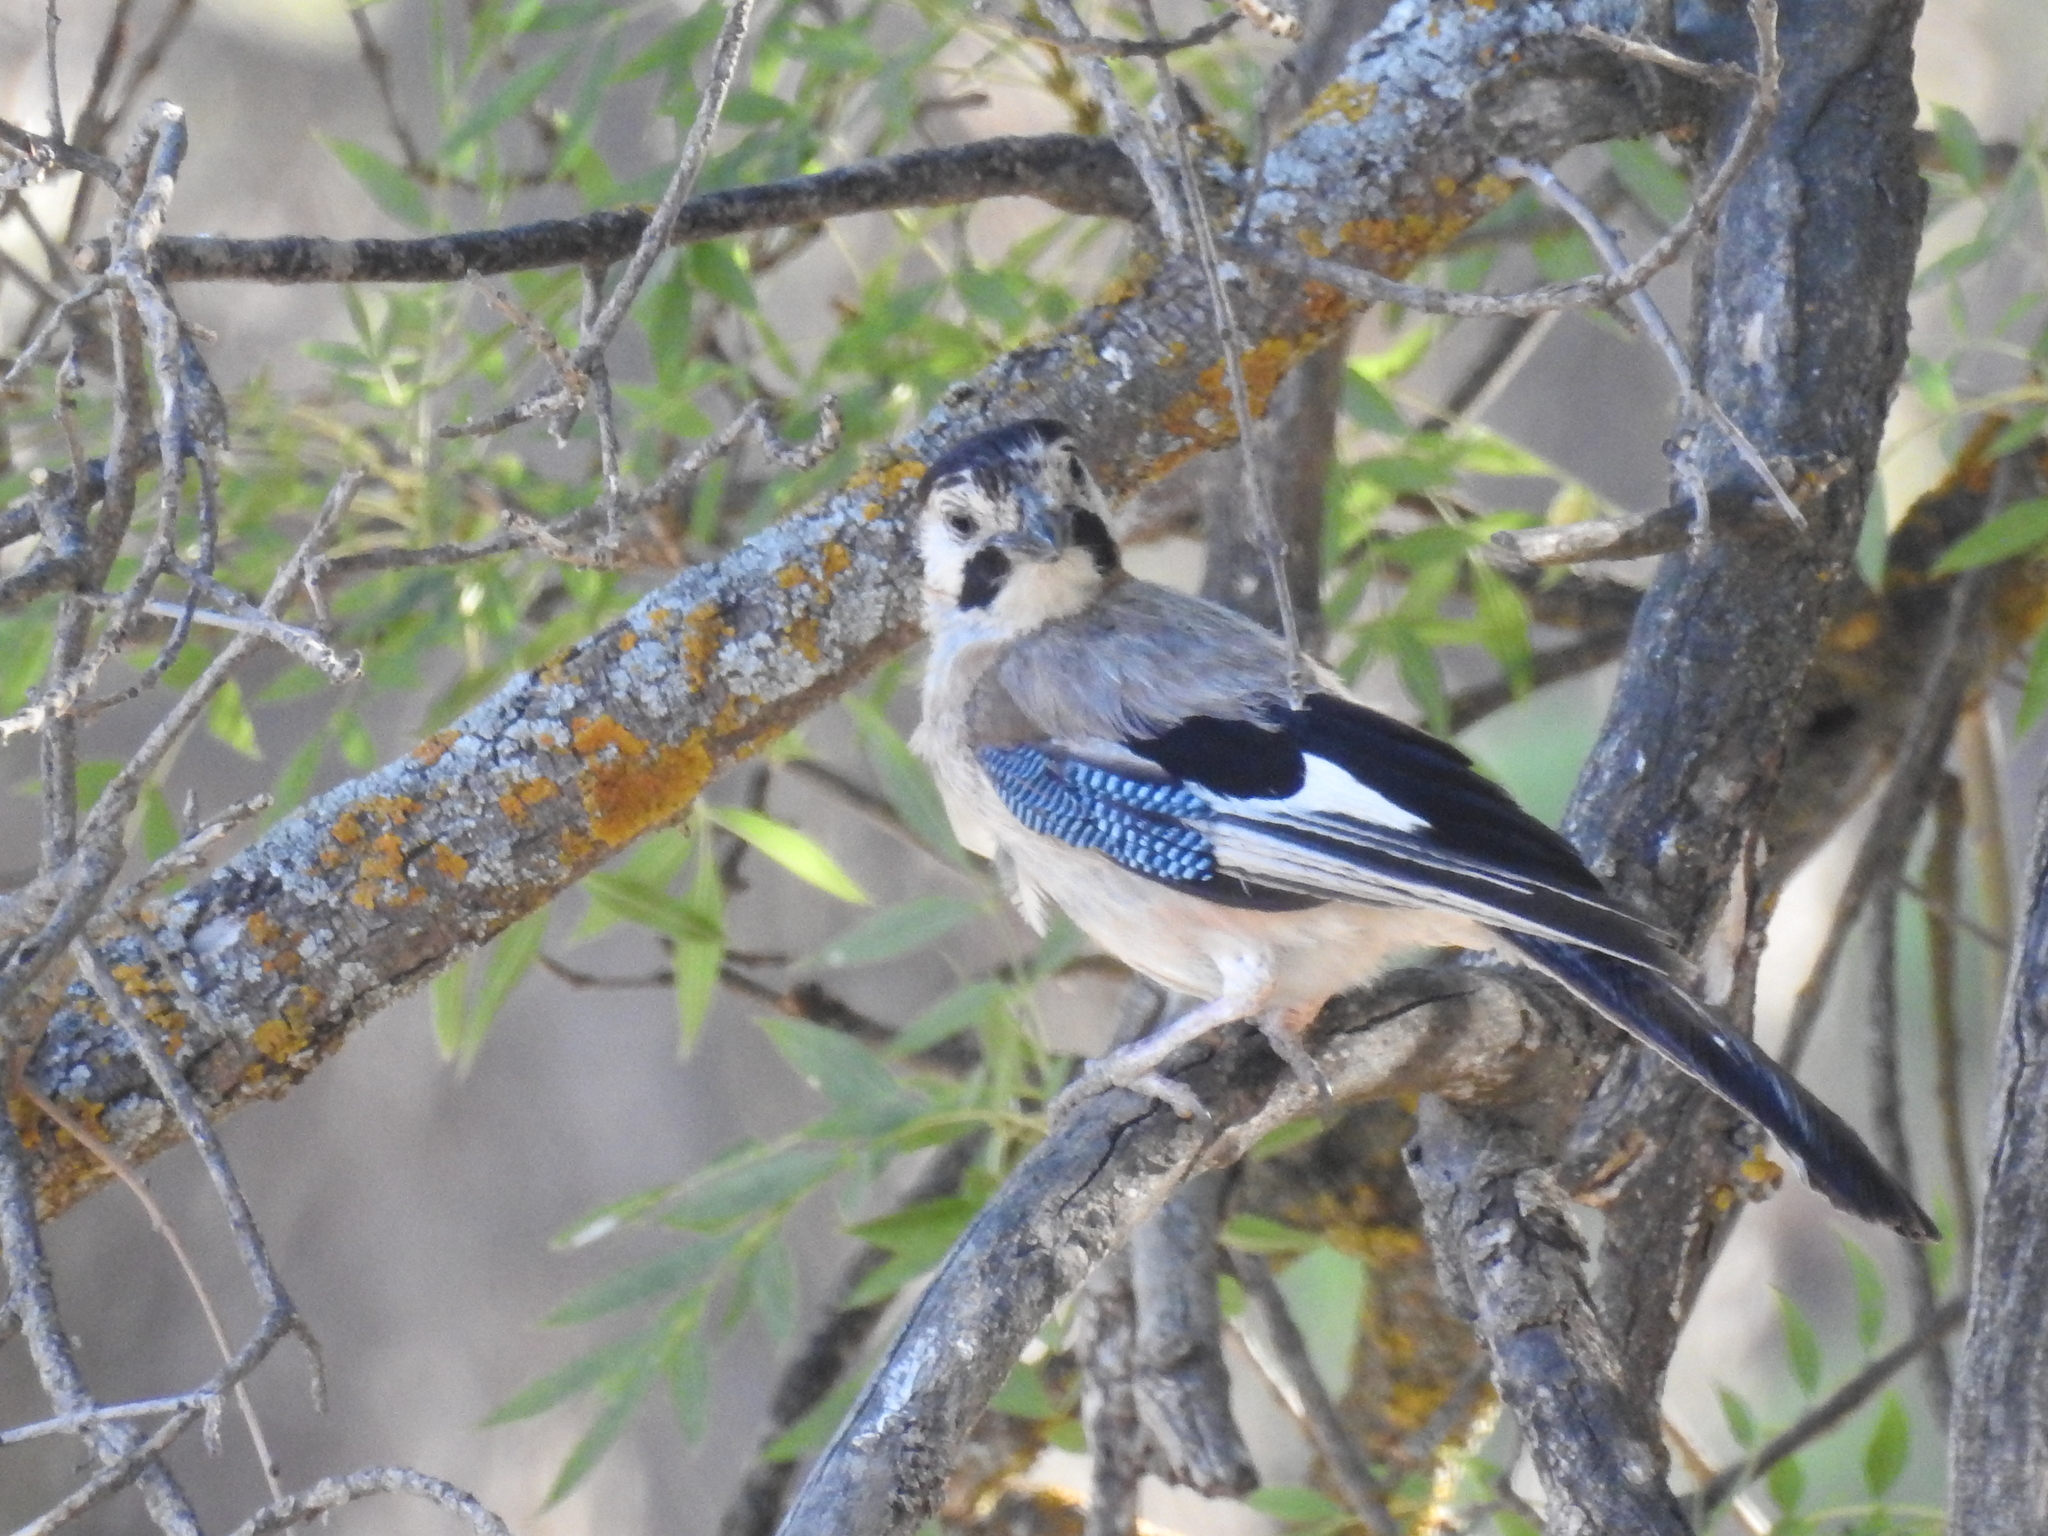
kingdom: Animalia
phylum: Chordata
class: Aves
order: Passeriformes
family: Corvidae
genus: Garrulus
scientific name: Garrulus glandarius
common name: Eurasian jay
